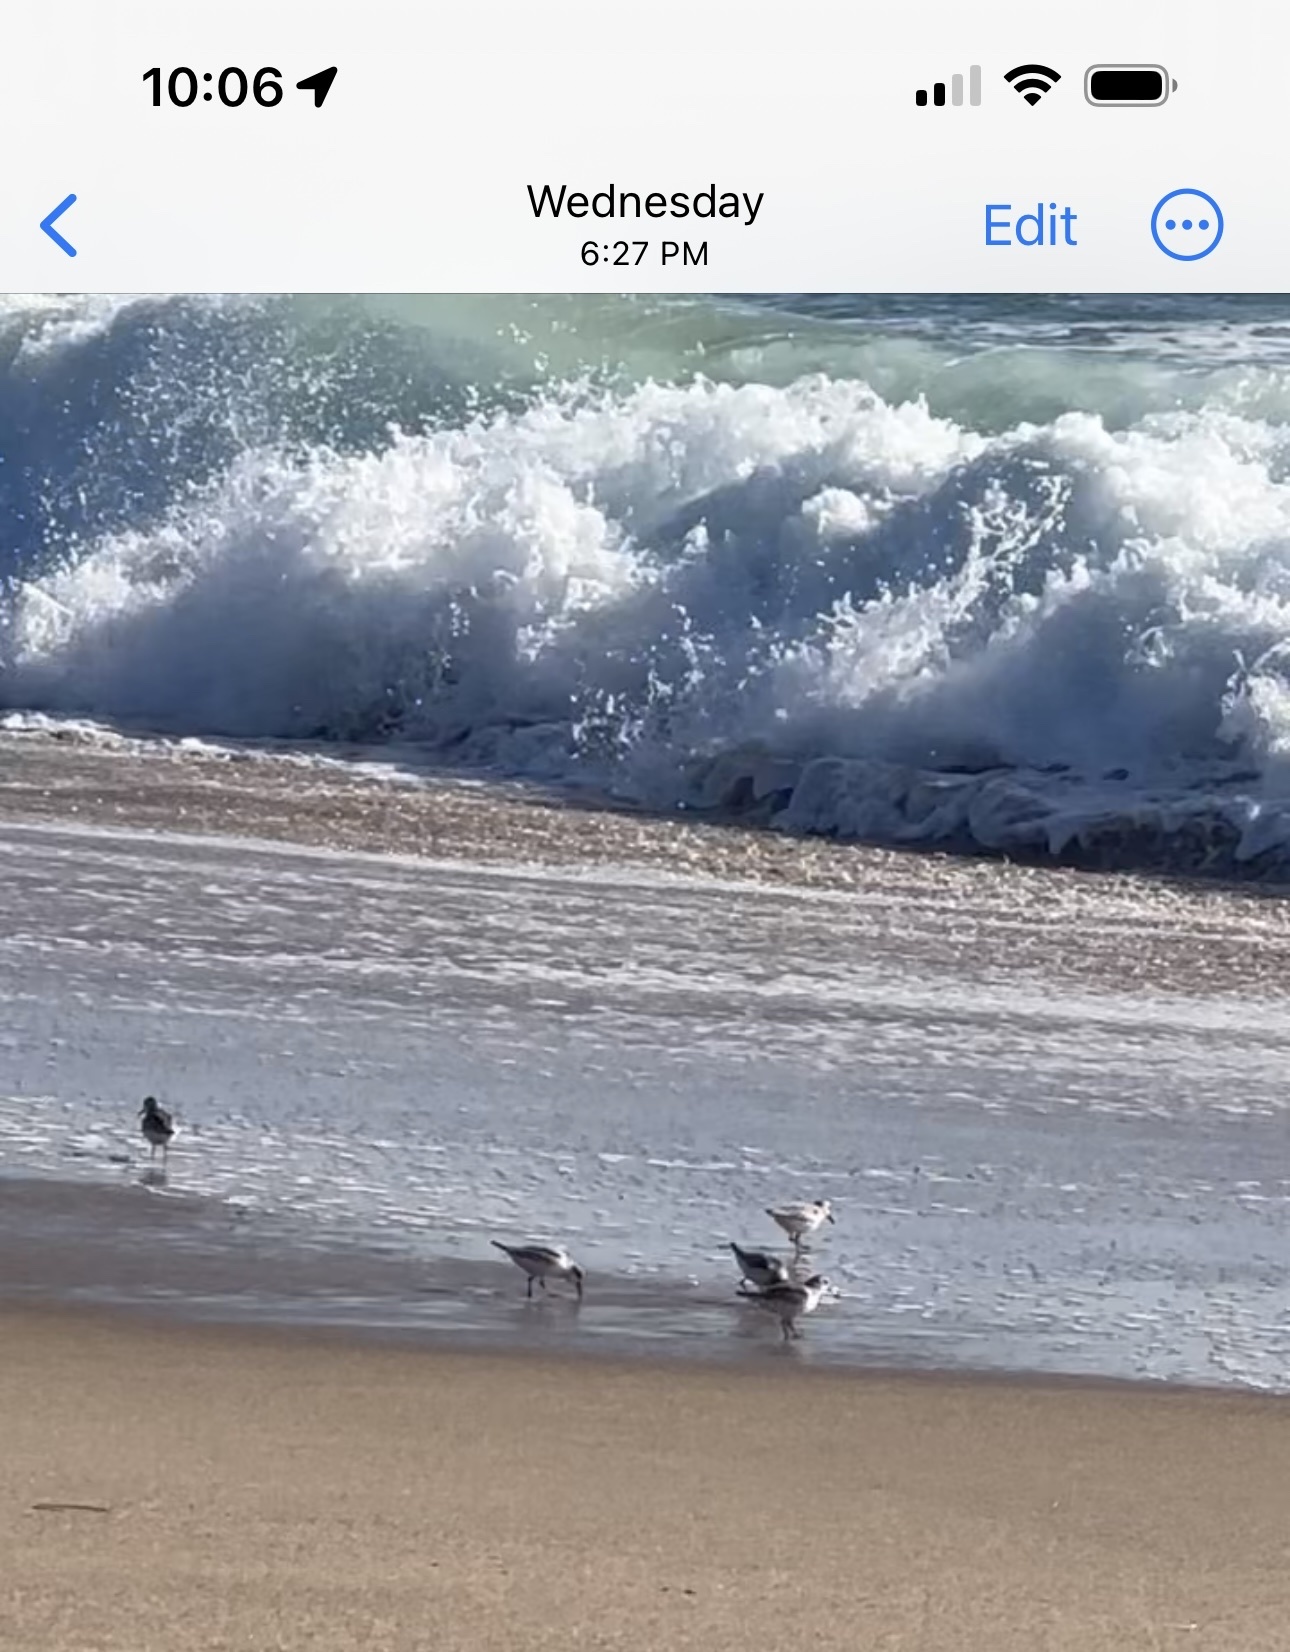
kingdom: Animalia
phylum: Chordata
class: Aves
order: Charadriiformes
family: Scolopacidae
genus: Calidris
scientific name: Calidris alba
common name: Sanderling
